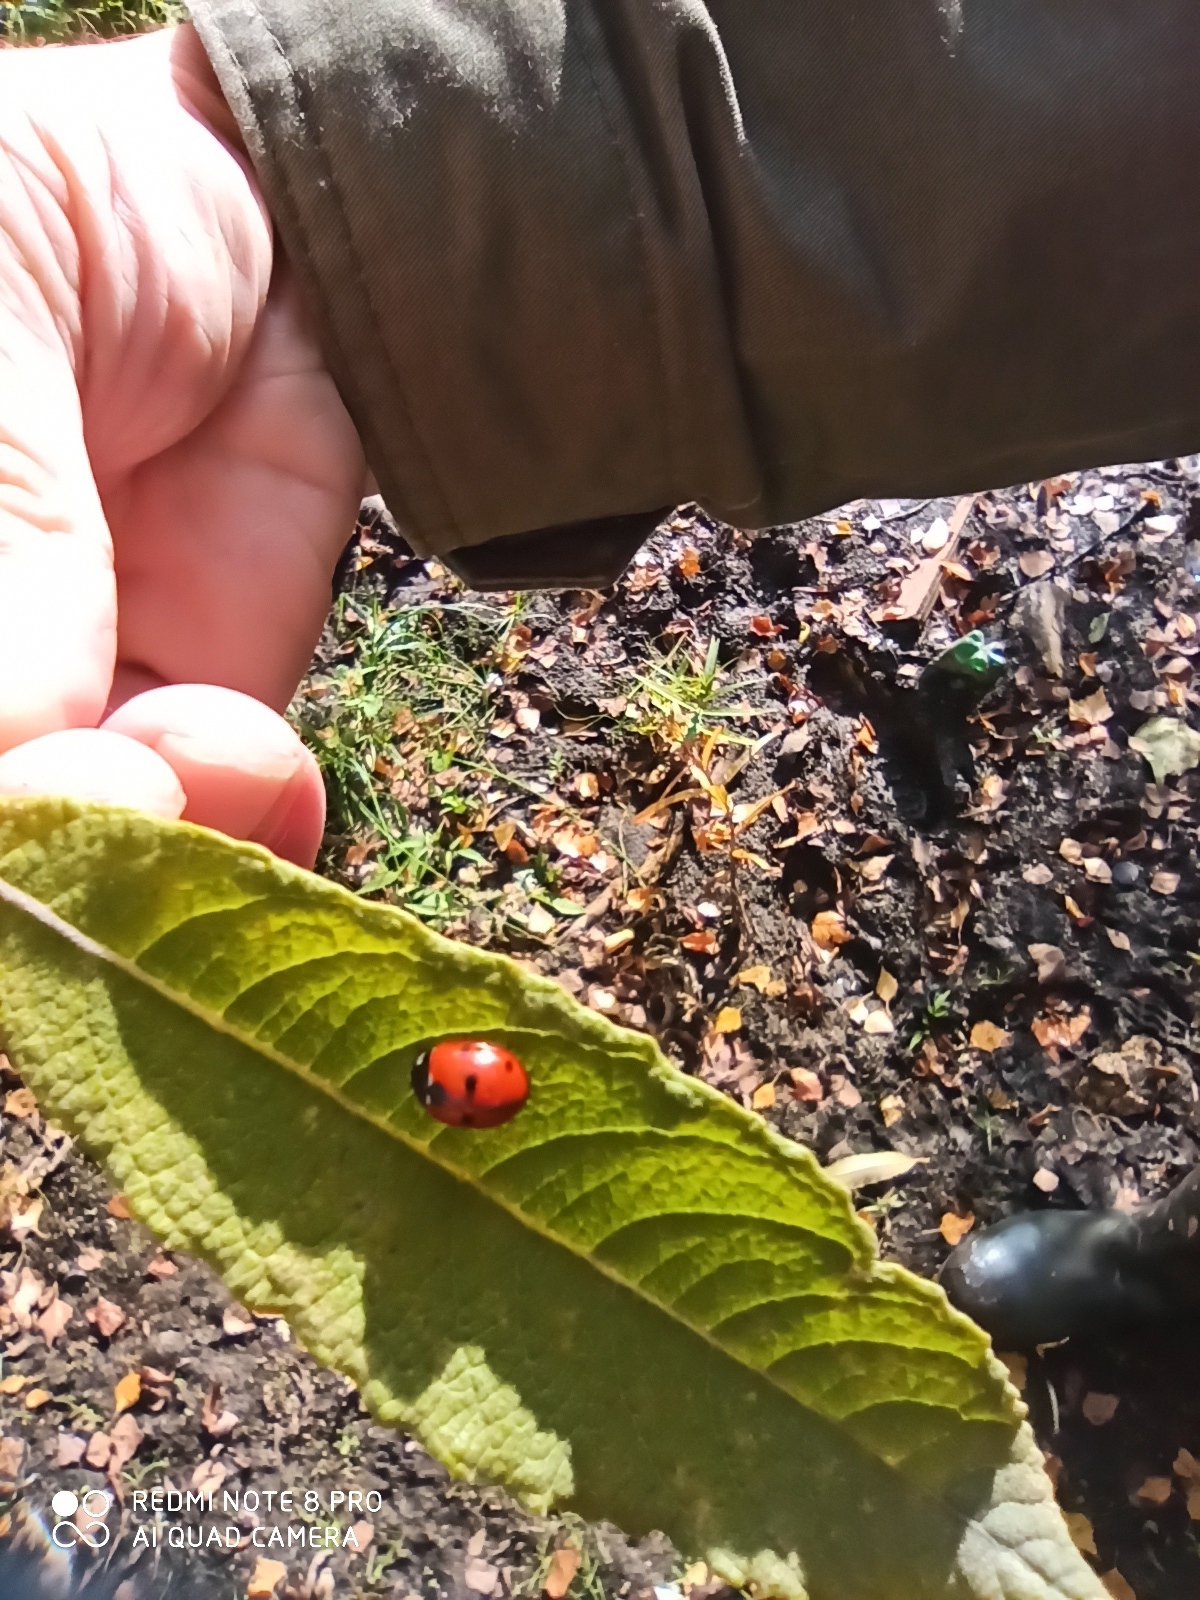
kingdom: Animalia
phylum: Arthropoda
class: Insecta
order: Coleoptera
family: Coccinellidae
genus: Coccinella
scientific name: Coccinella septempunctata
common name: Sevenspotted lady beetle
